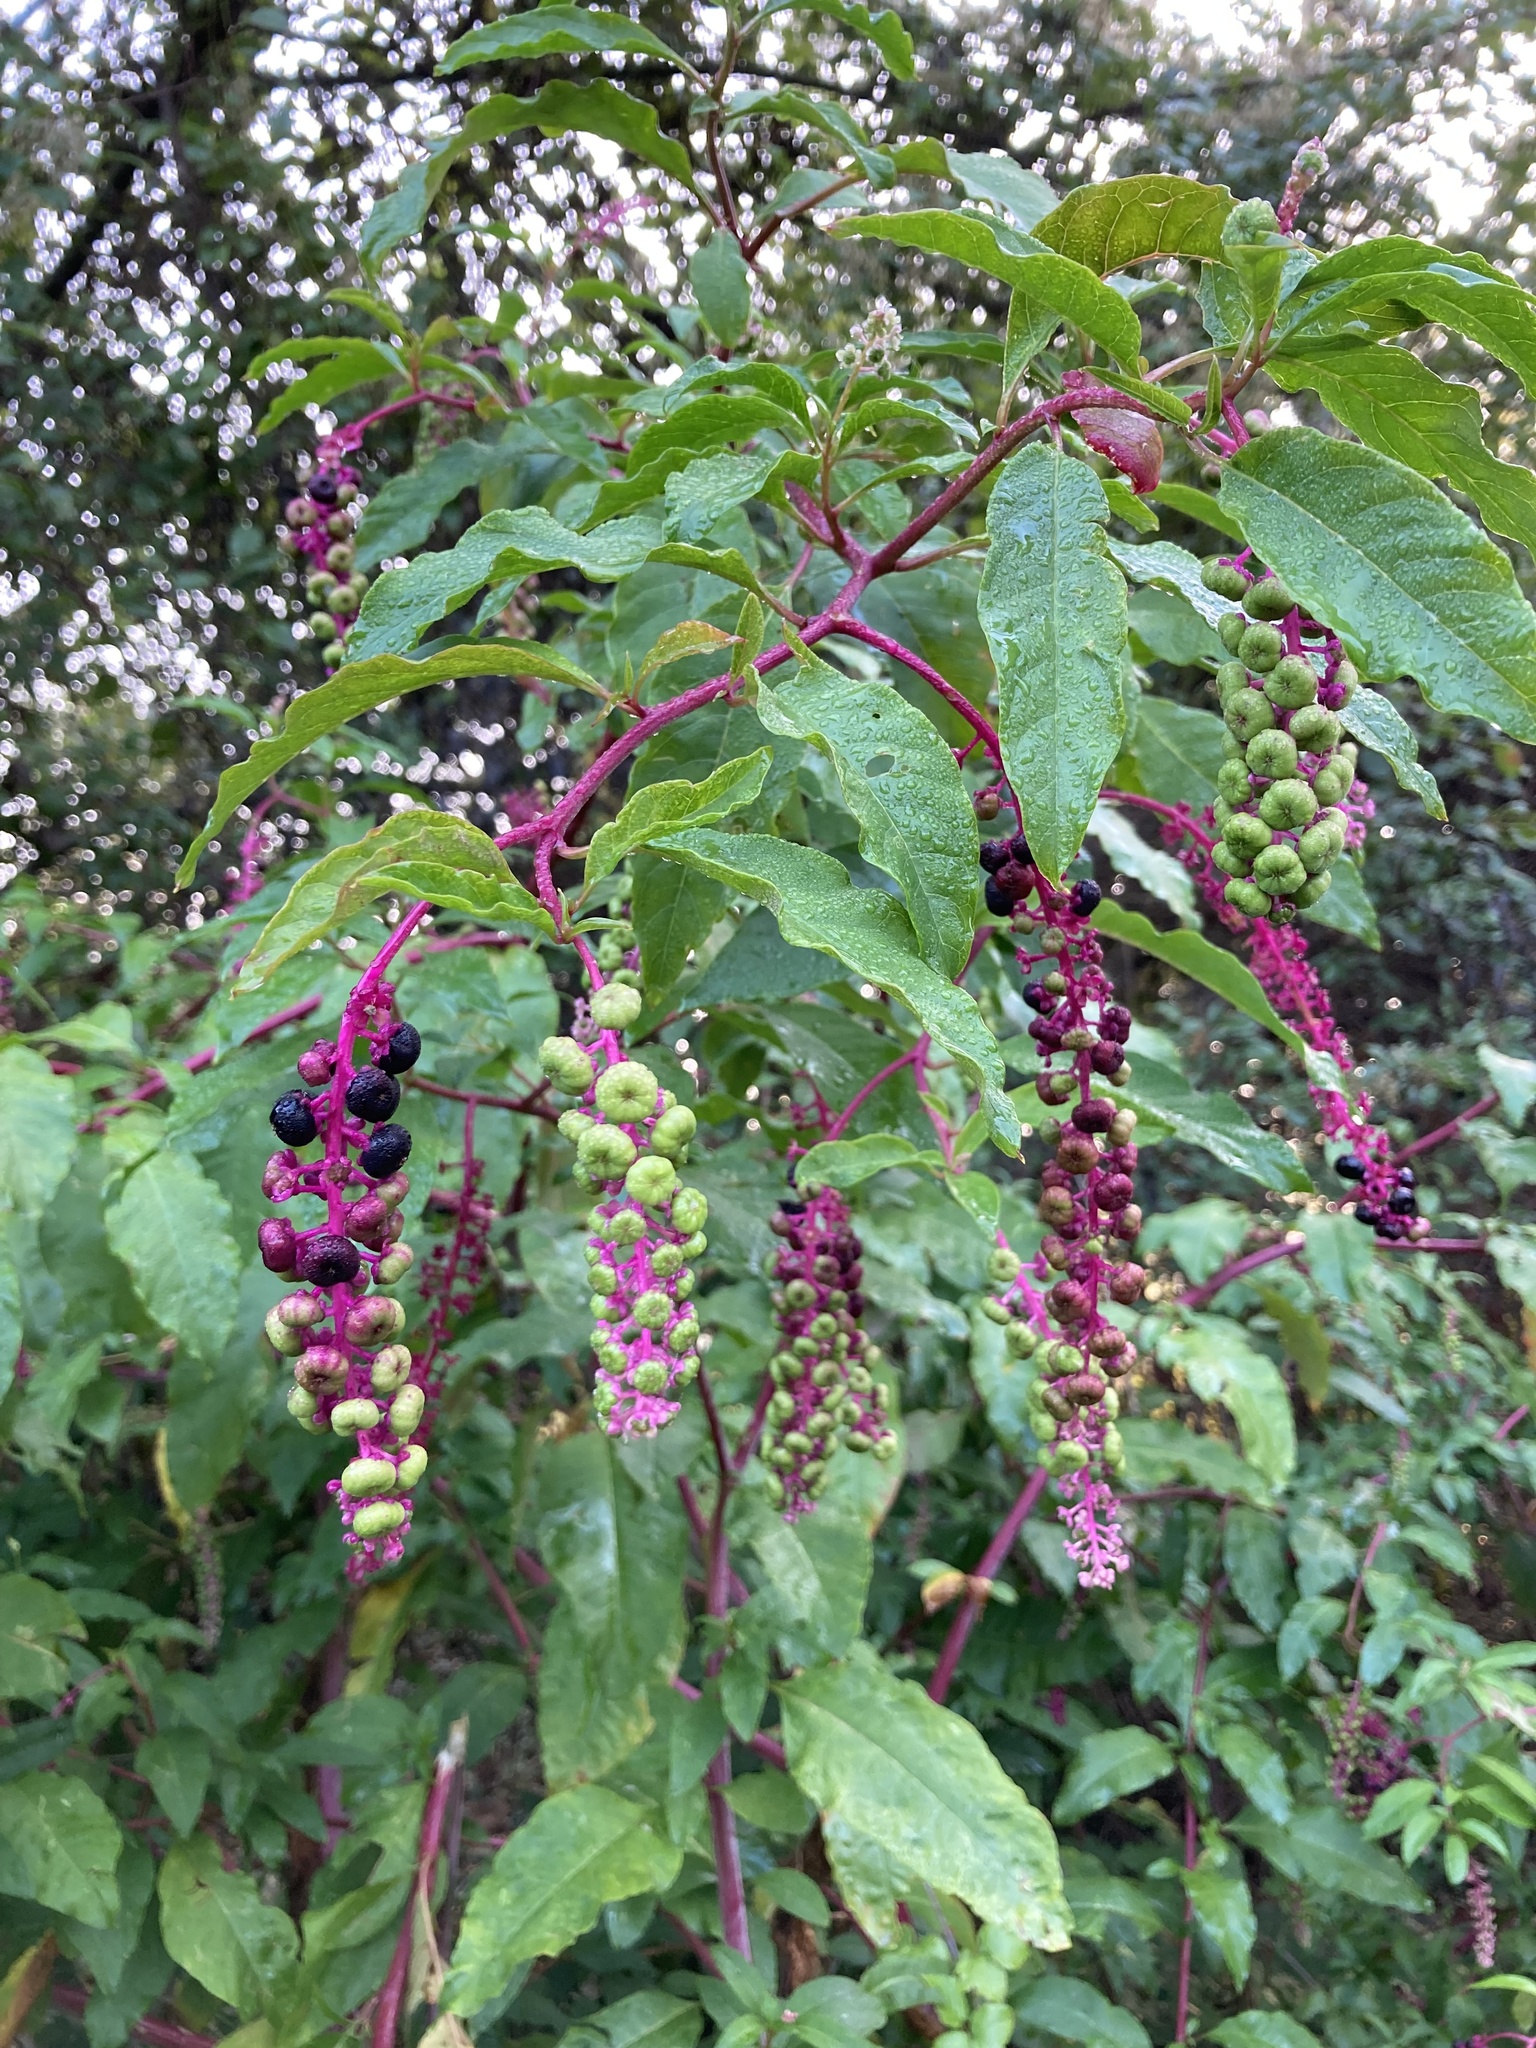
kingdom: Plantae
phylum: Tracheophyta
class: Magnoliopsida
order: Caryophyllales
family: Phytolaccaceae
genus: Phytolacca
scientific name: Phytolacca americana
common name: American pokeweed
